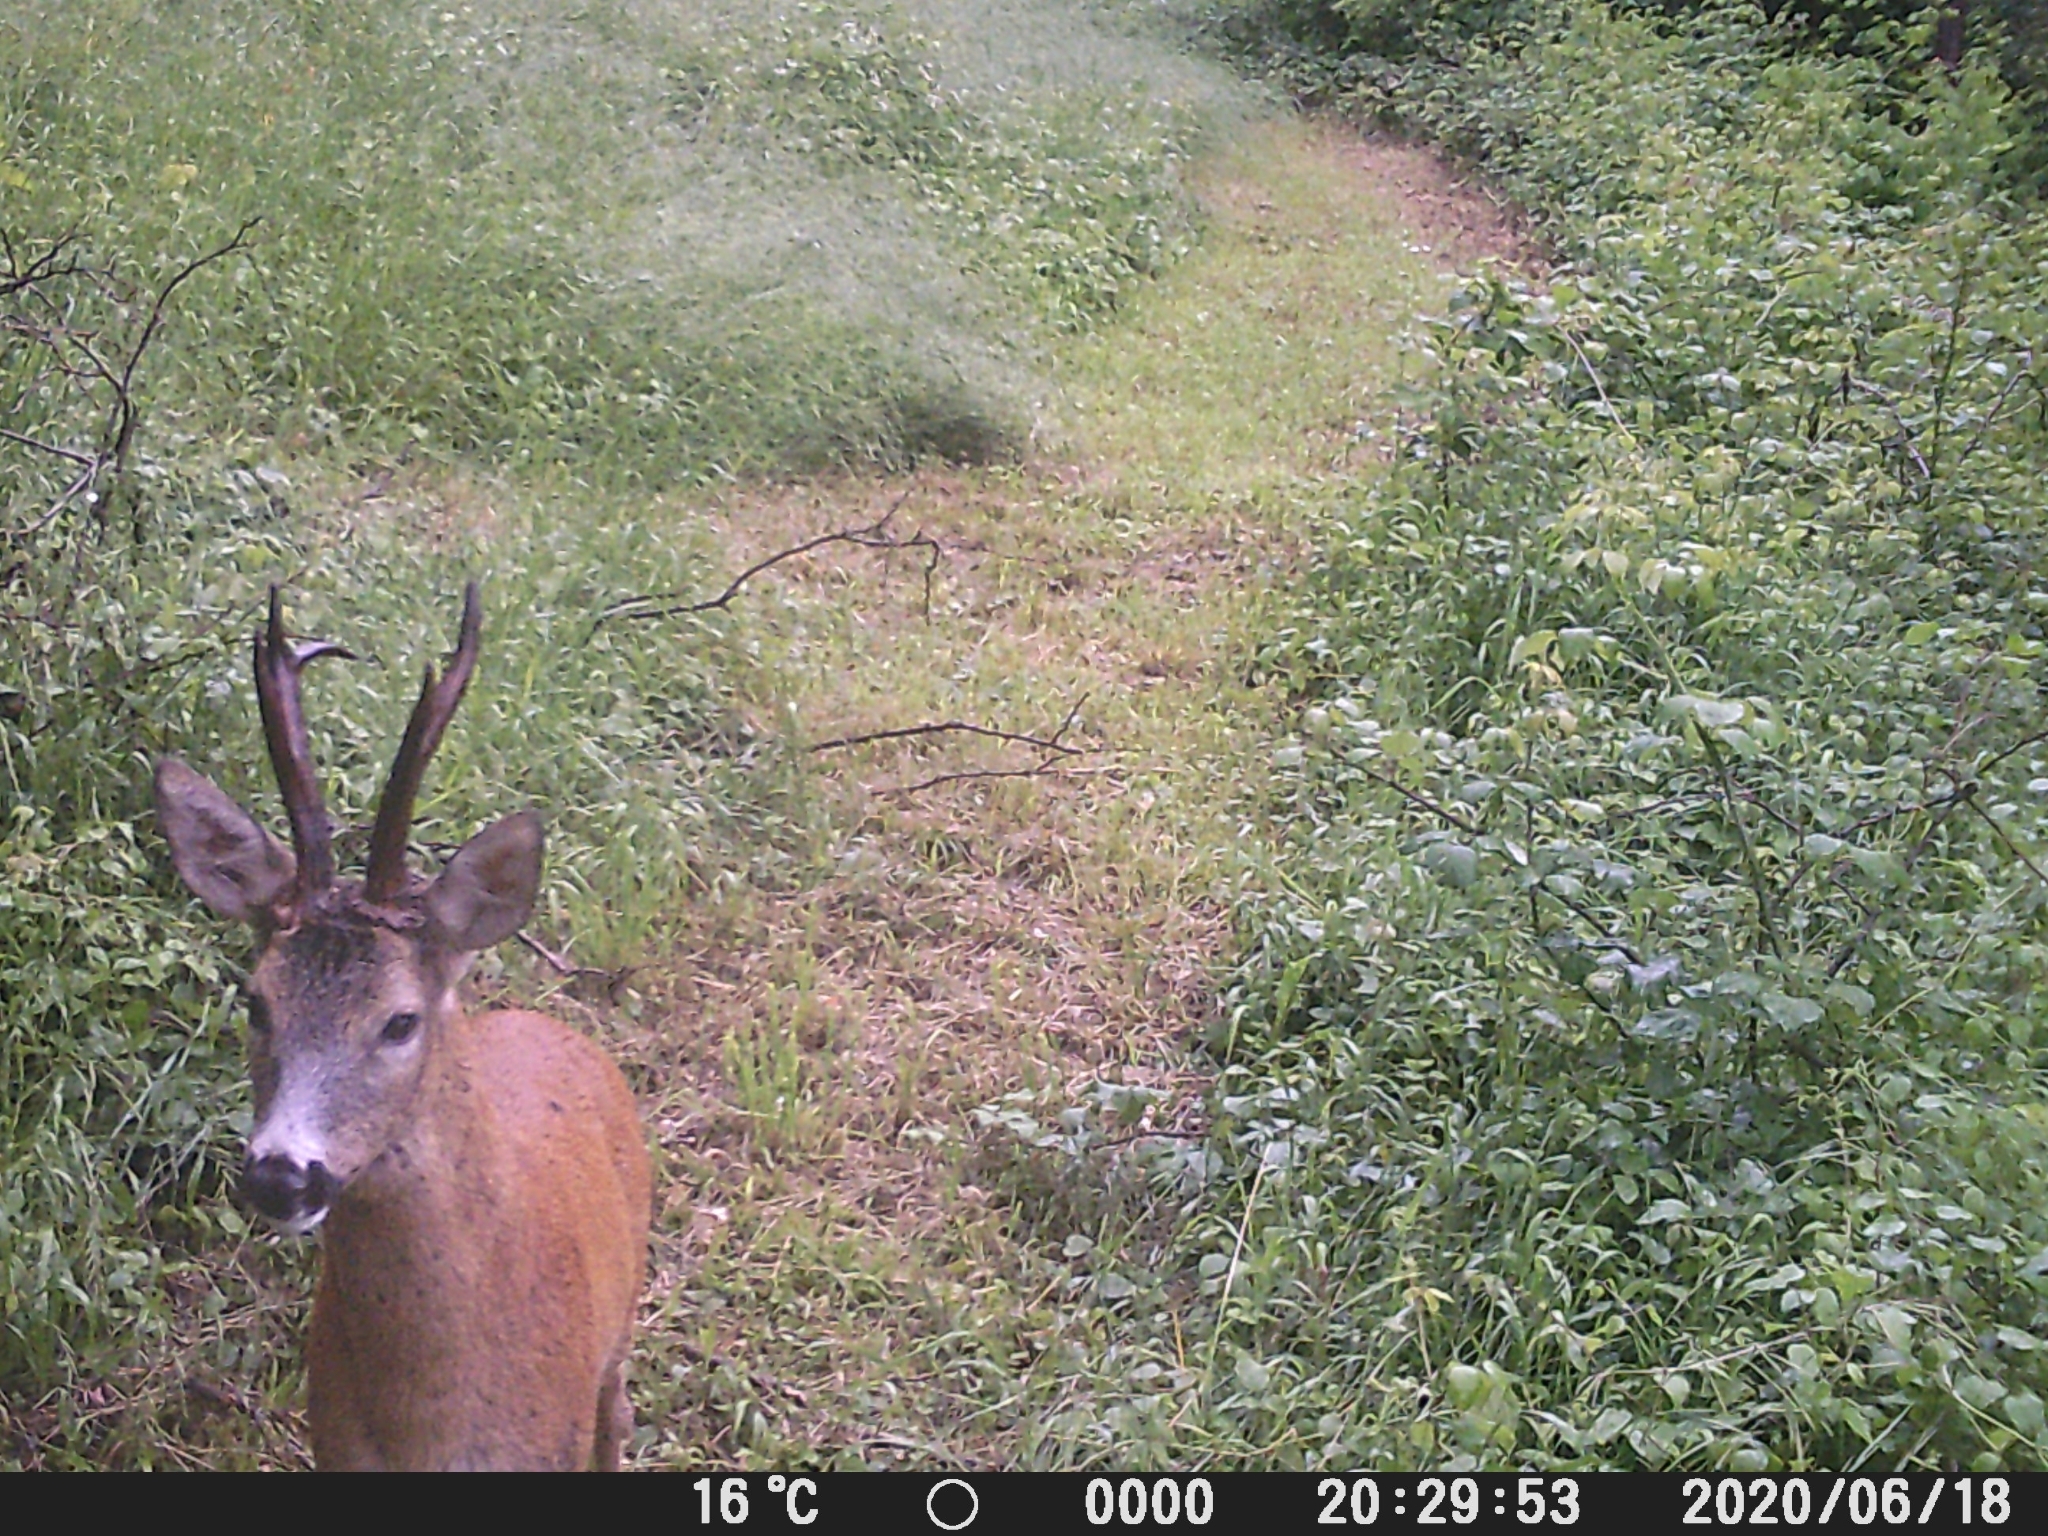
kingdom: Animalia
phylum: Chordata
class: Mammalia
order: Artiodactyla
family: Cervidae
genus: Capreolus
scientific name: Capreolus capreolus
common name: Western roe deer
